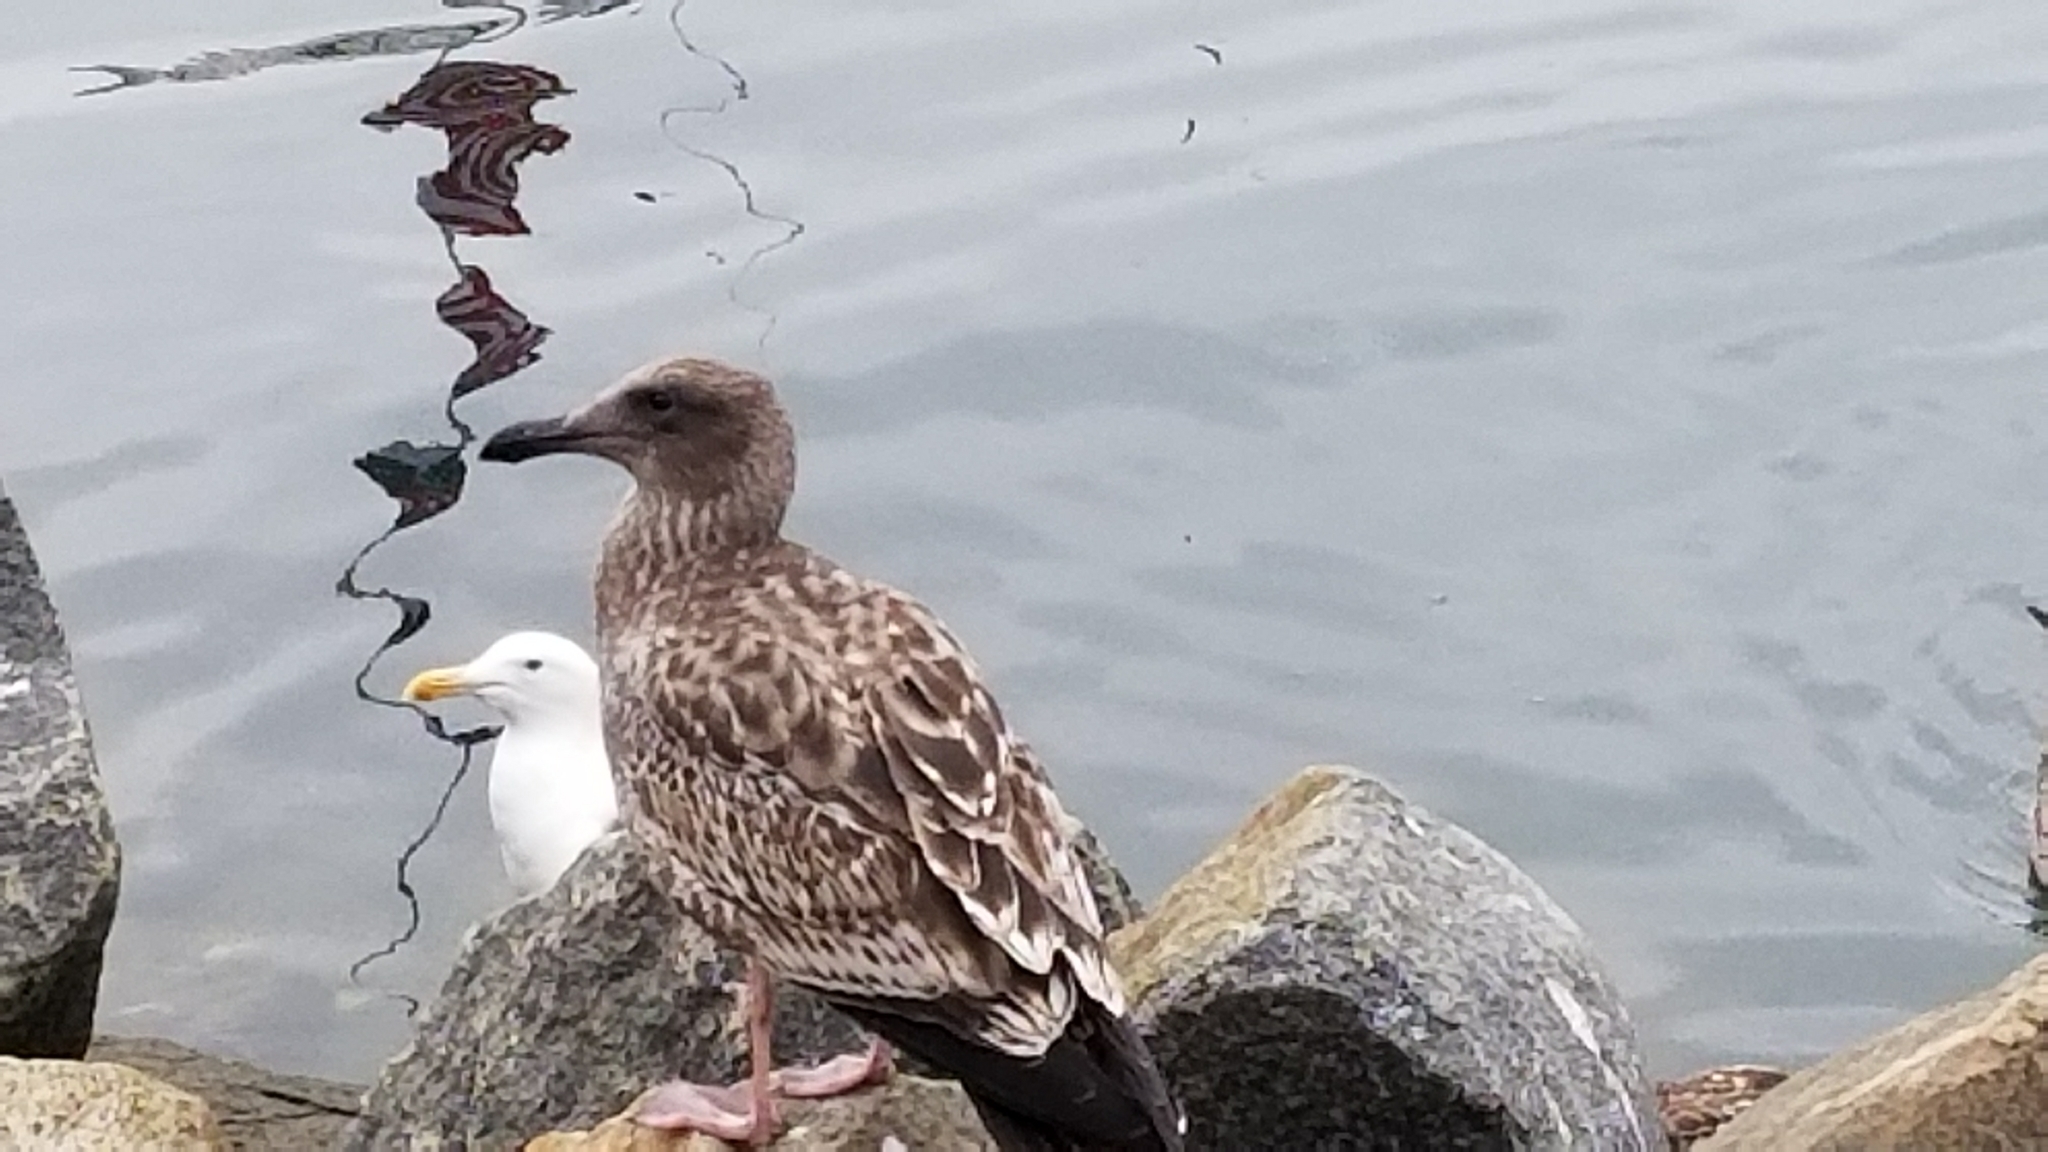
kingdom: Animalia
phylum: Chordata
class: Aves
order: Charadriiformes
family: Laridae
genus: Larus
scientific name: Larus occidentalis
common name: Western gull
